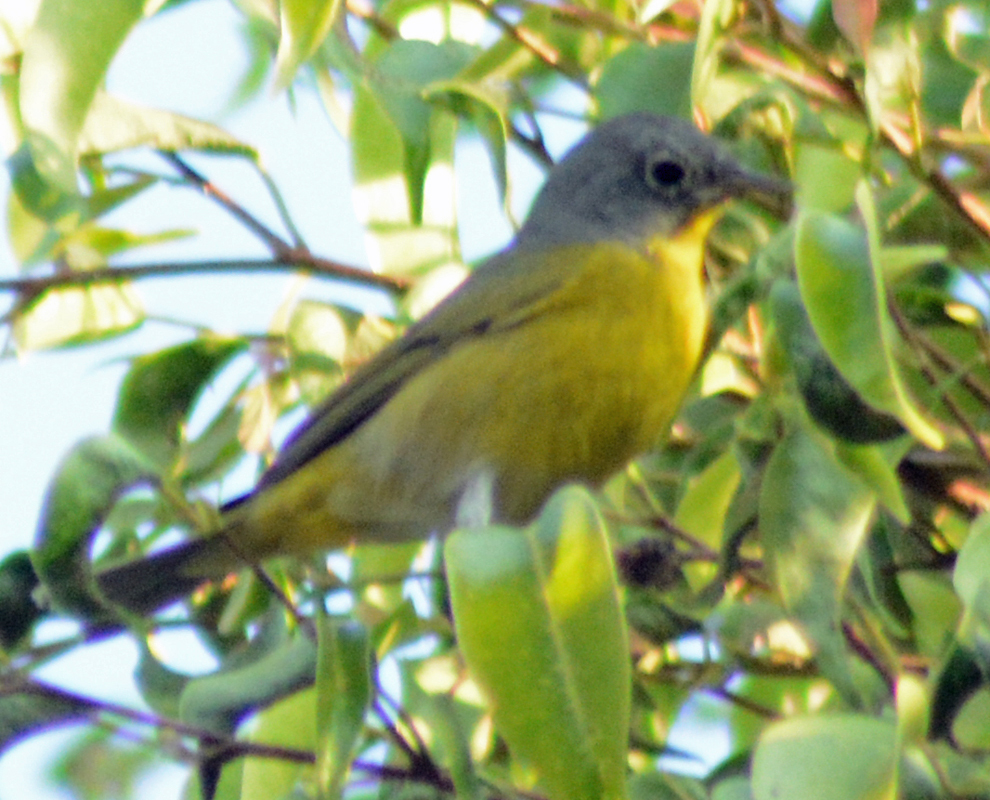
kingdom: Animalia
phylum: Chordata
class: Aves
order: Passeriformes
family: Parulidae
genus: Leiothlypis
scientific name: Leiothlypis ruficapilla
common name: Nashville warbler
